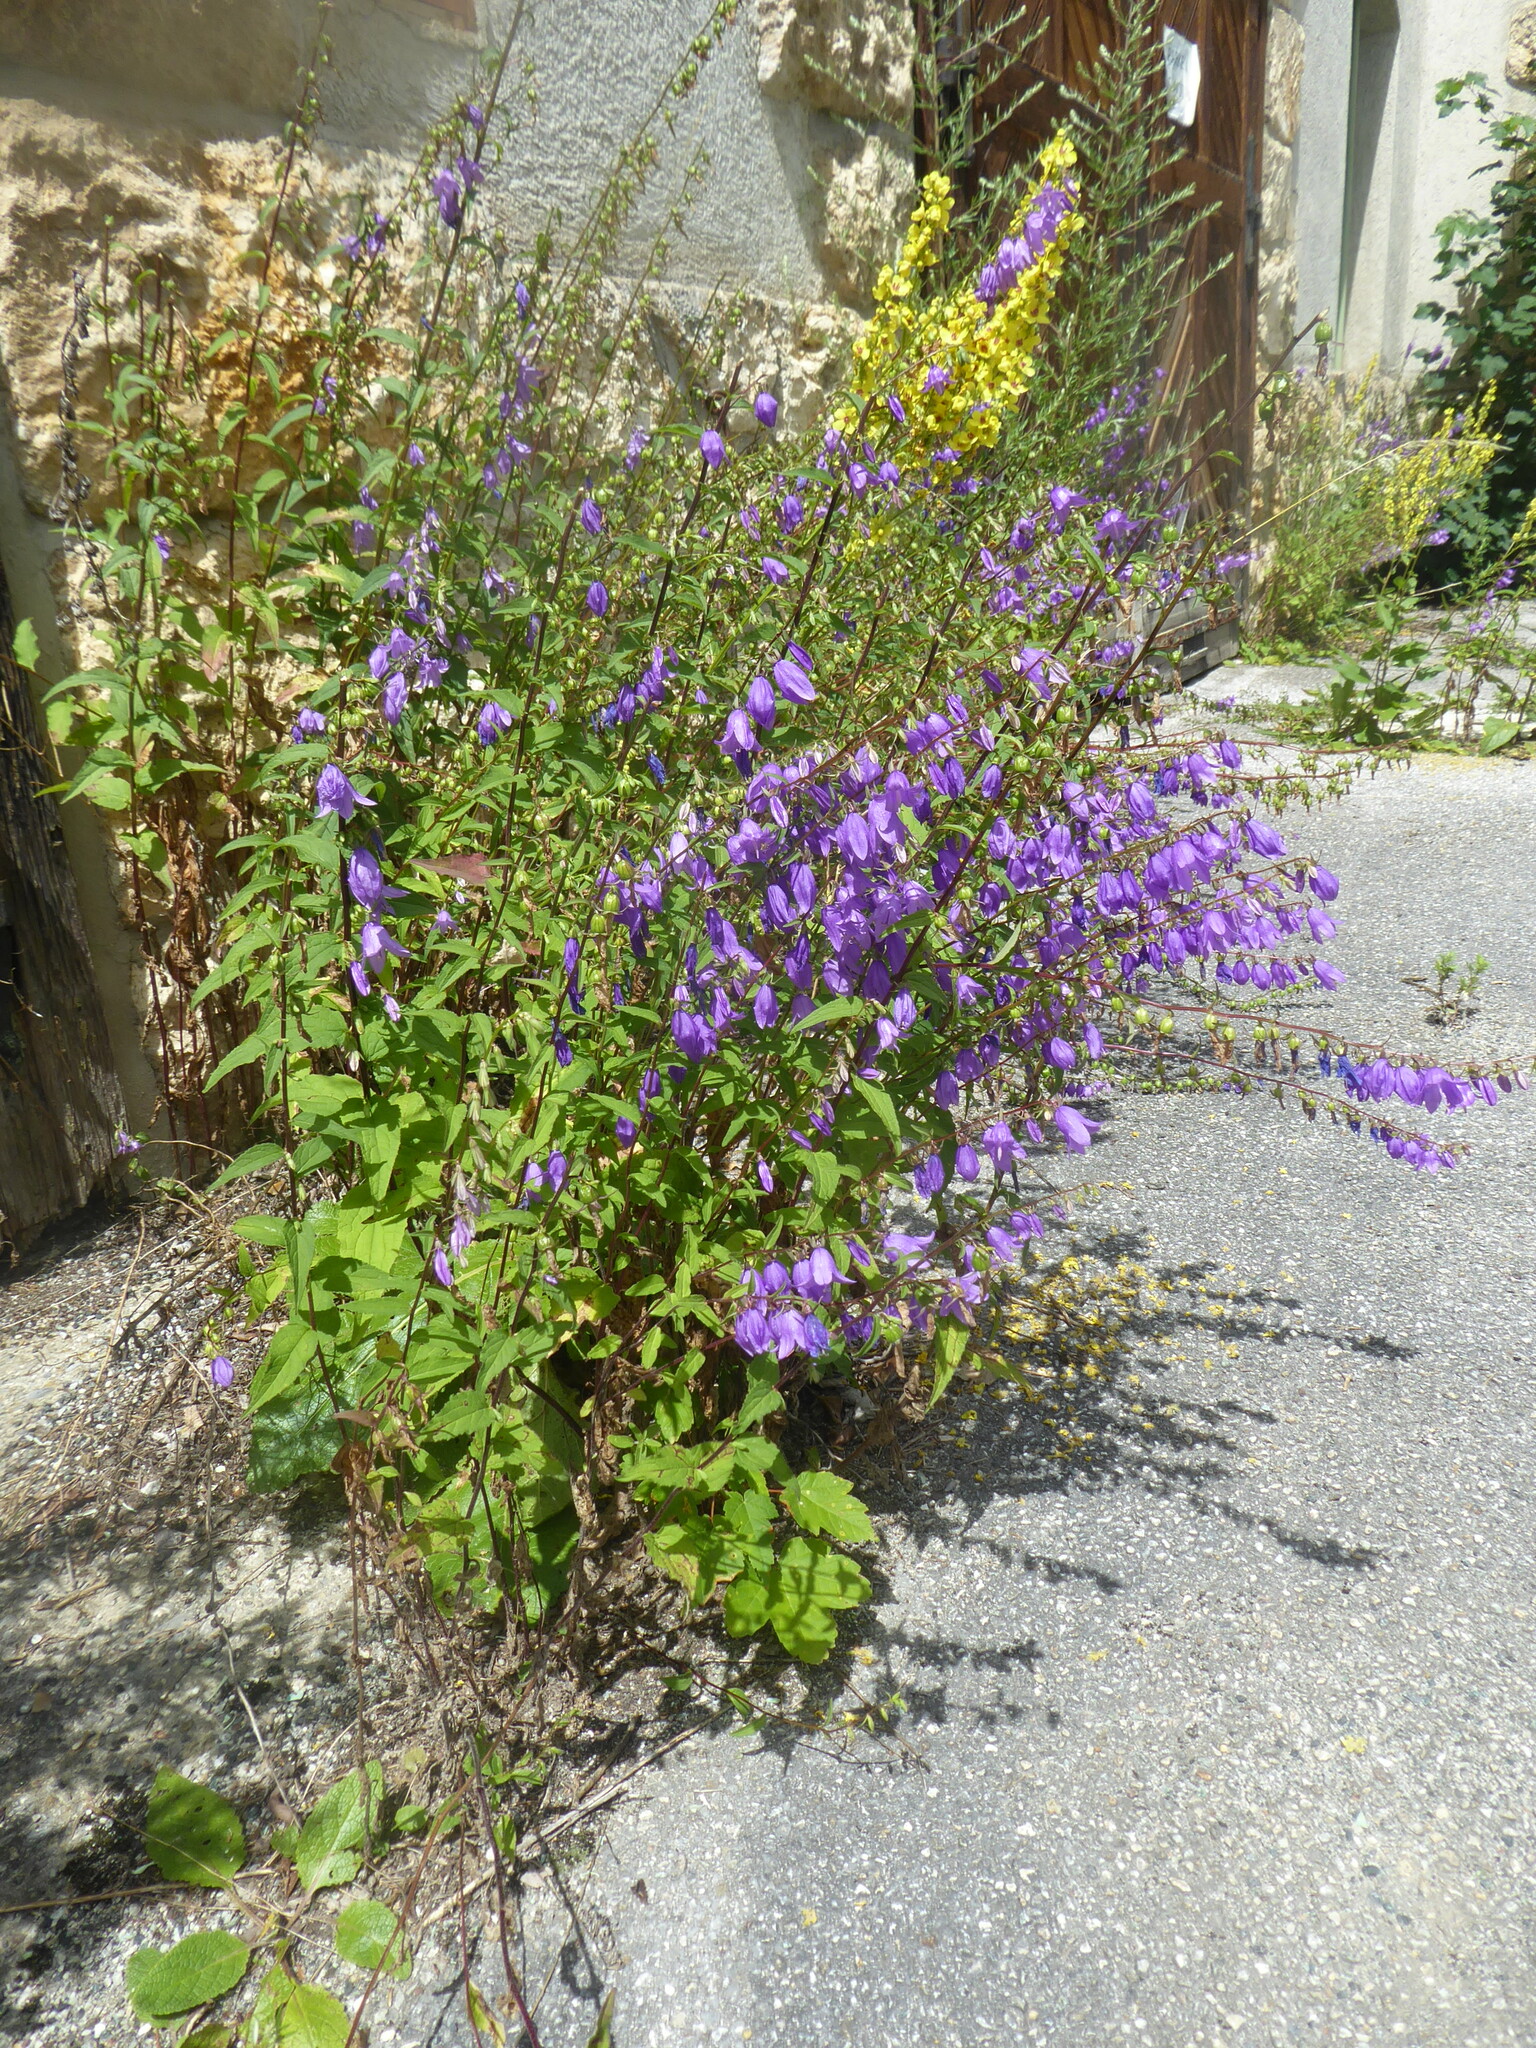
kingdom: Plantae
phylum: Tracheophyta
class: Magnoliopsida
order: Asterales
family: Campanulaceae
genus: Campanula
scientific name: Campanula rapunculoides
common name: Creeping bellflower
